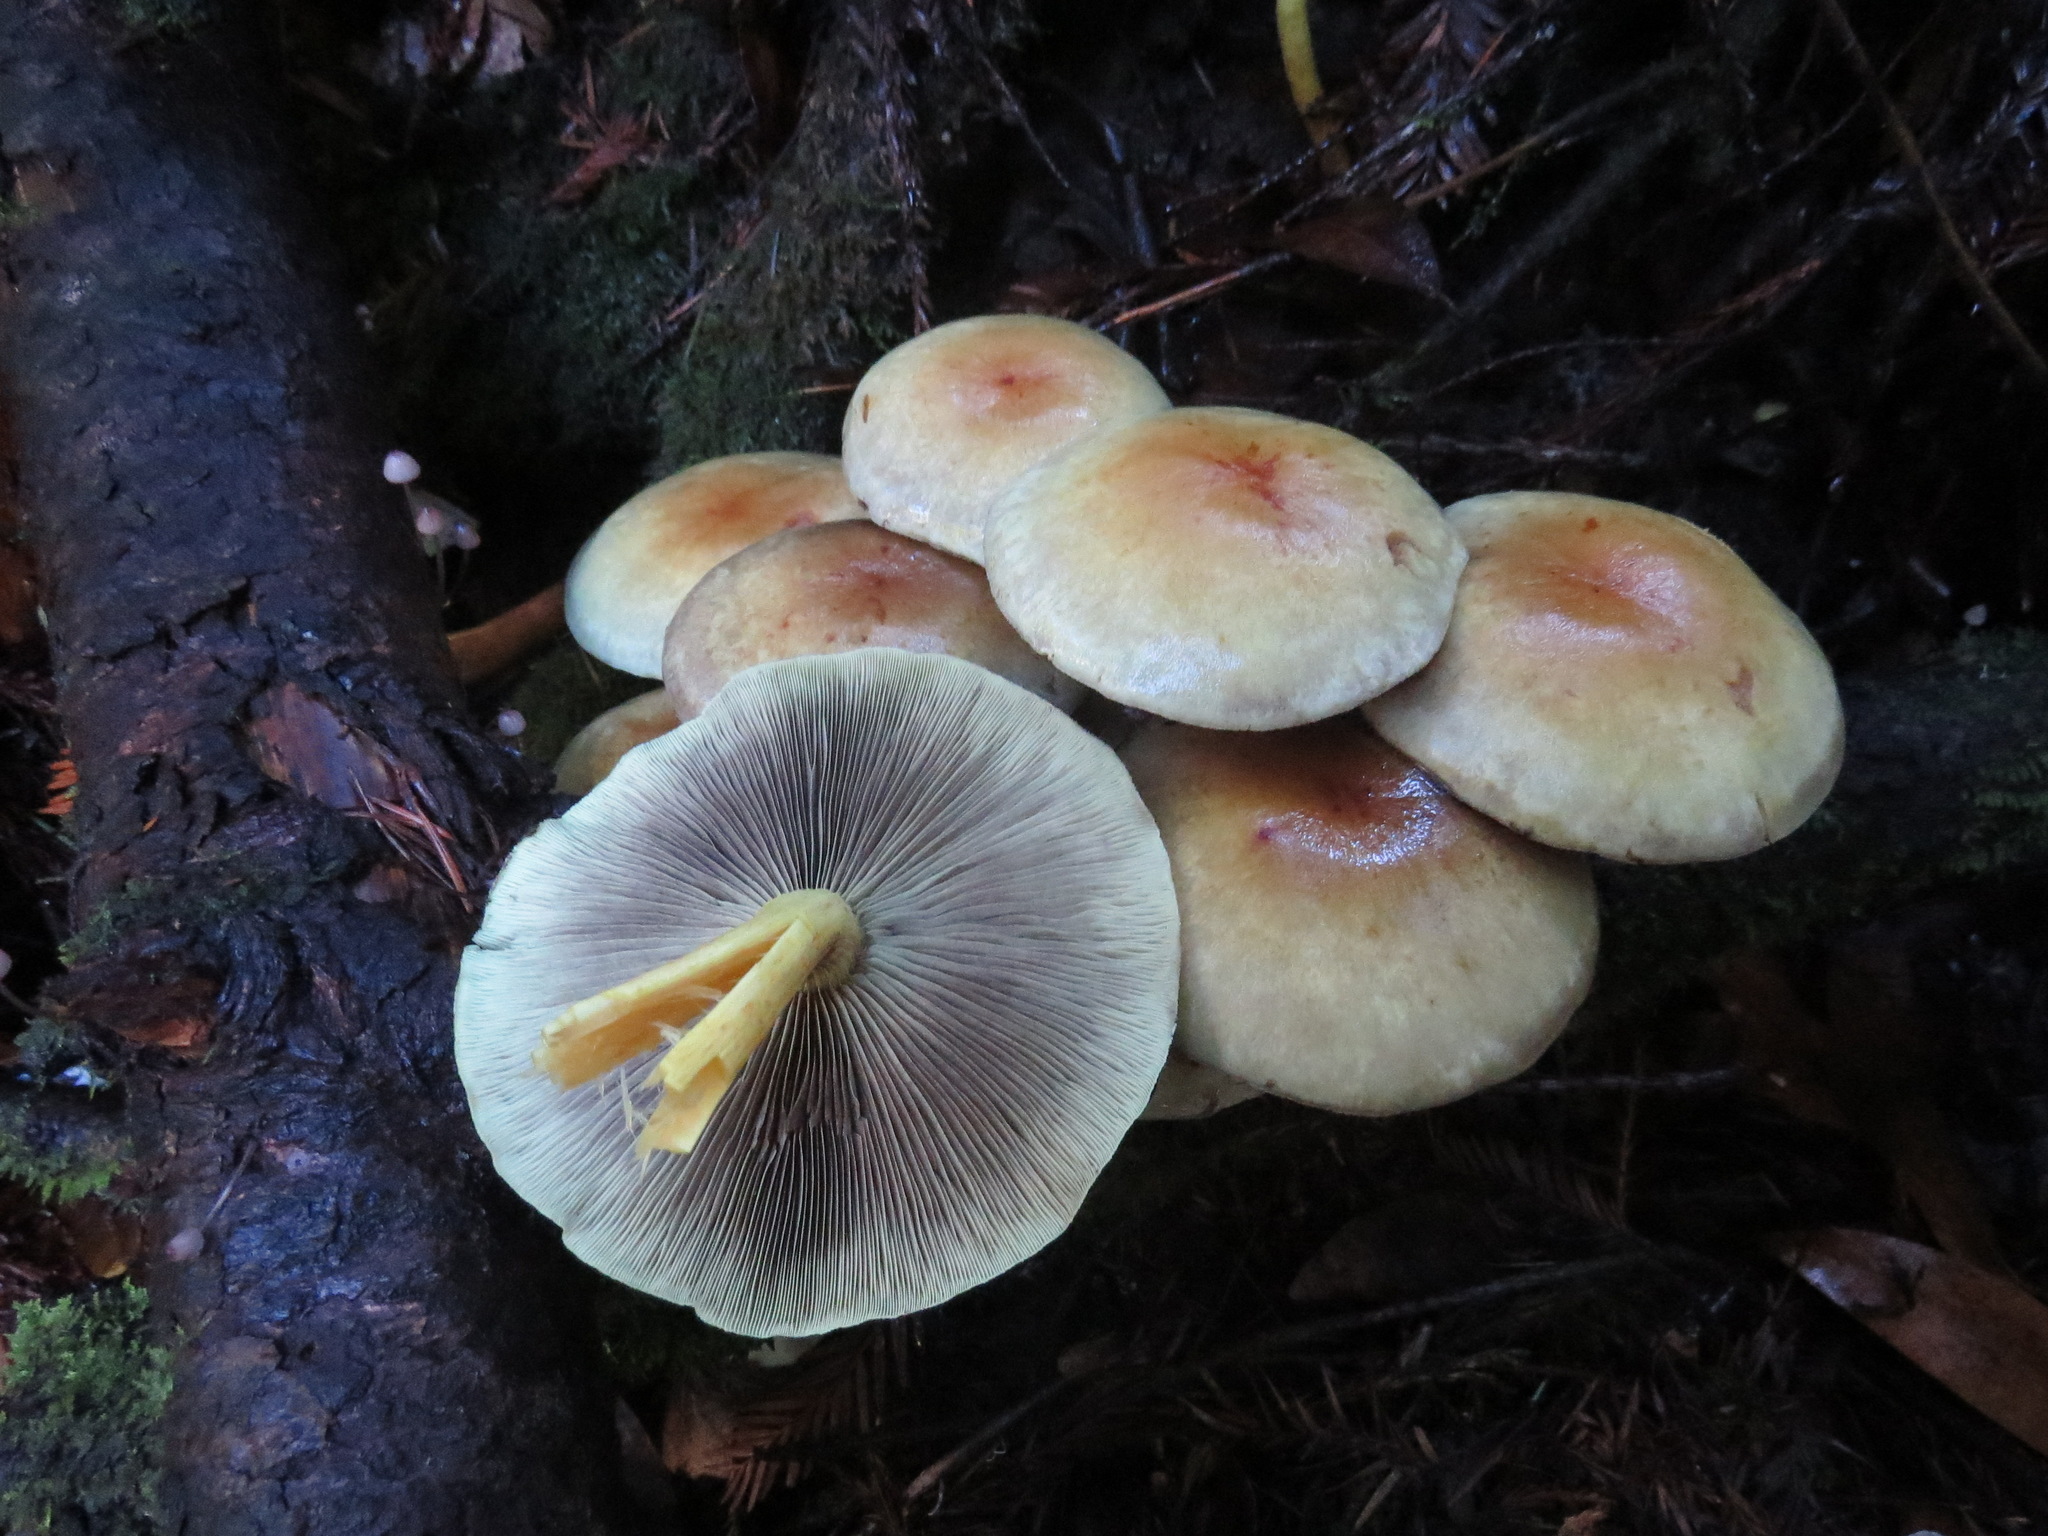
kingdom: Fungi
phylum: Basidiomycota
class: Agaricomycetes
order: Agaricales
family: Strophariaceae
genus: Hypholoma
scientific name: Hypholoma capnoides
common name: Conifer tuft
